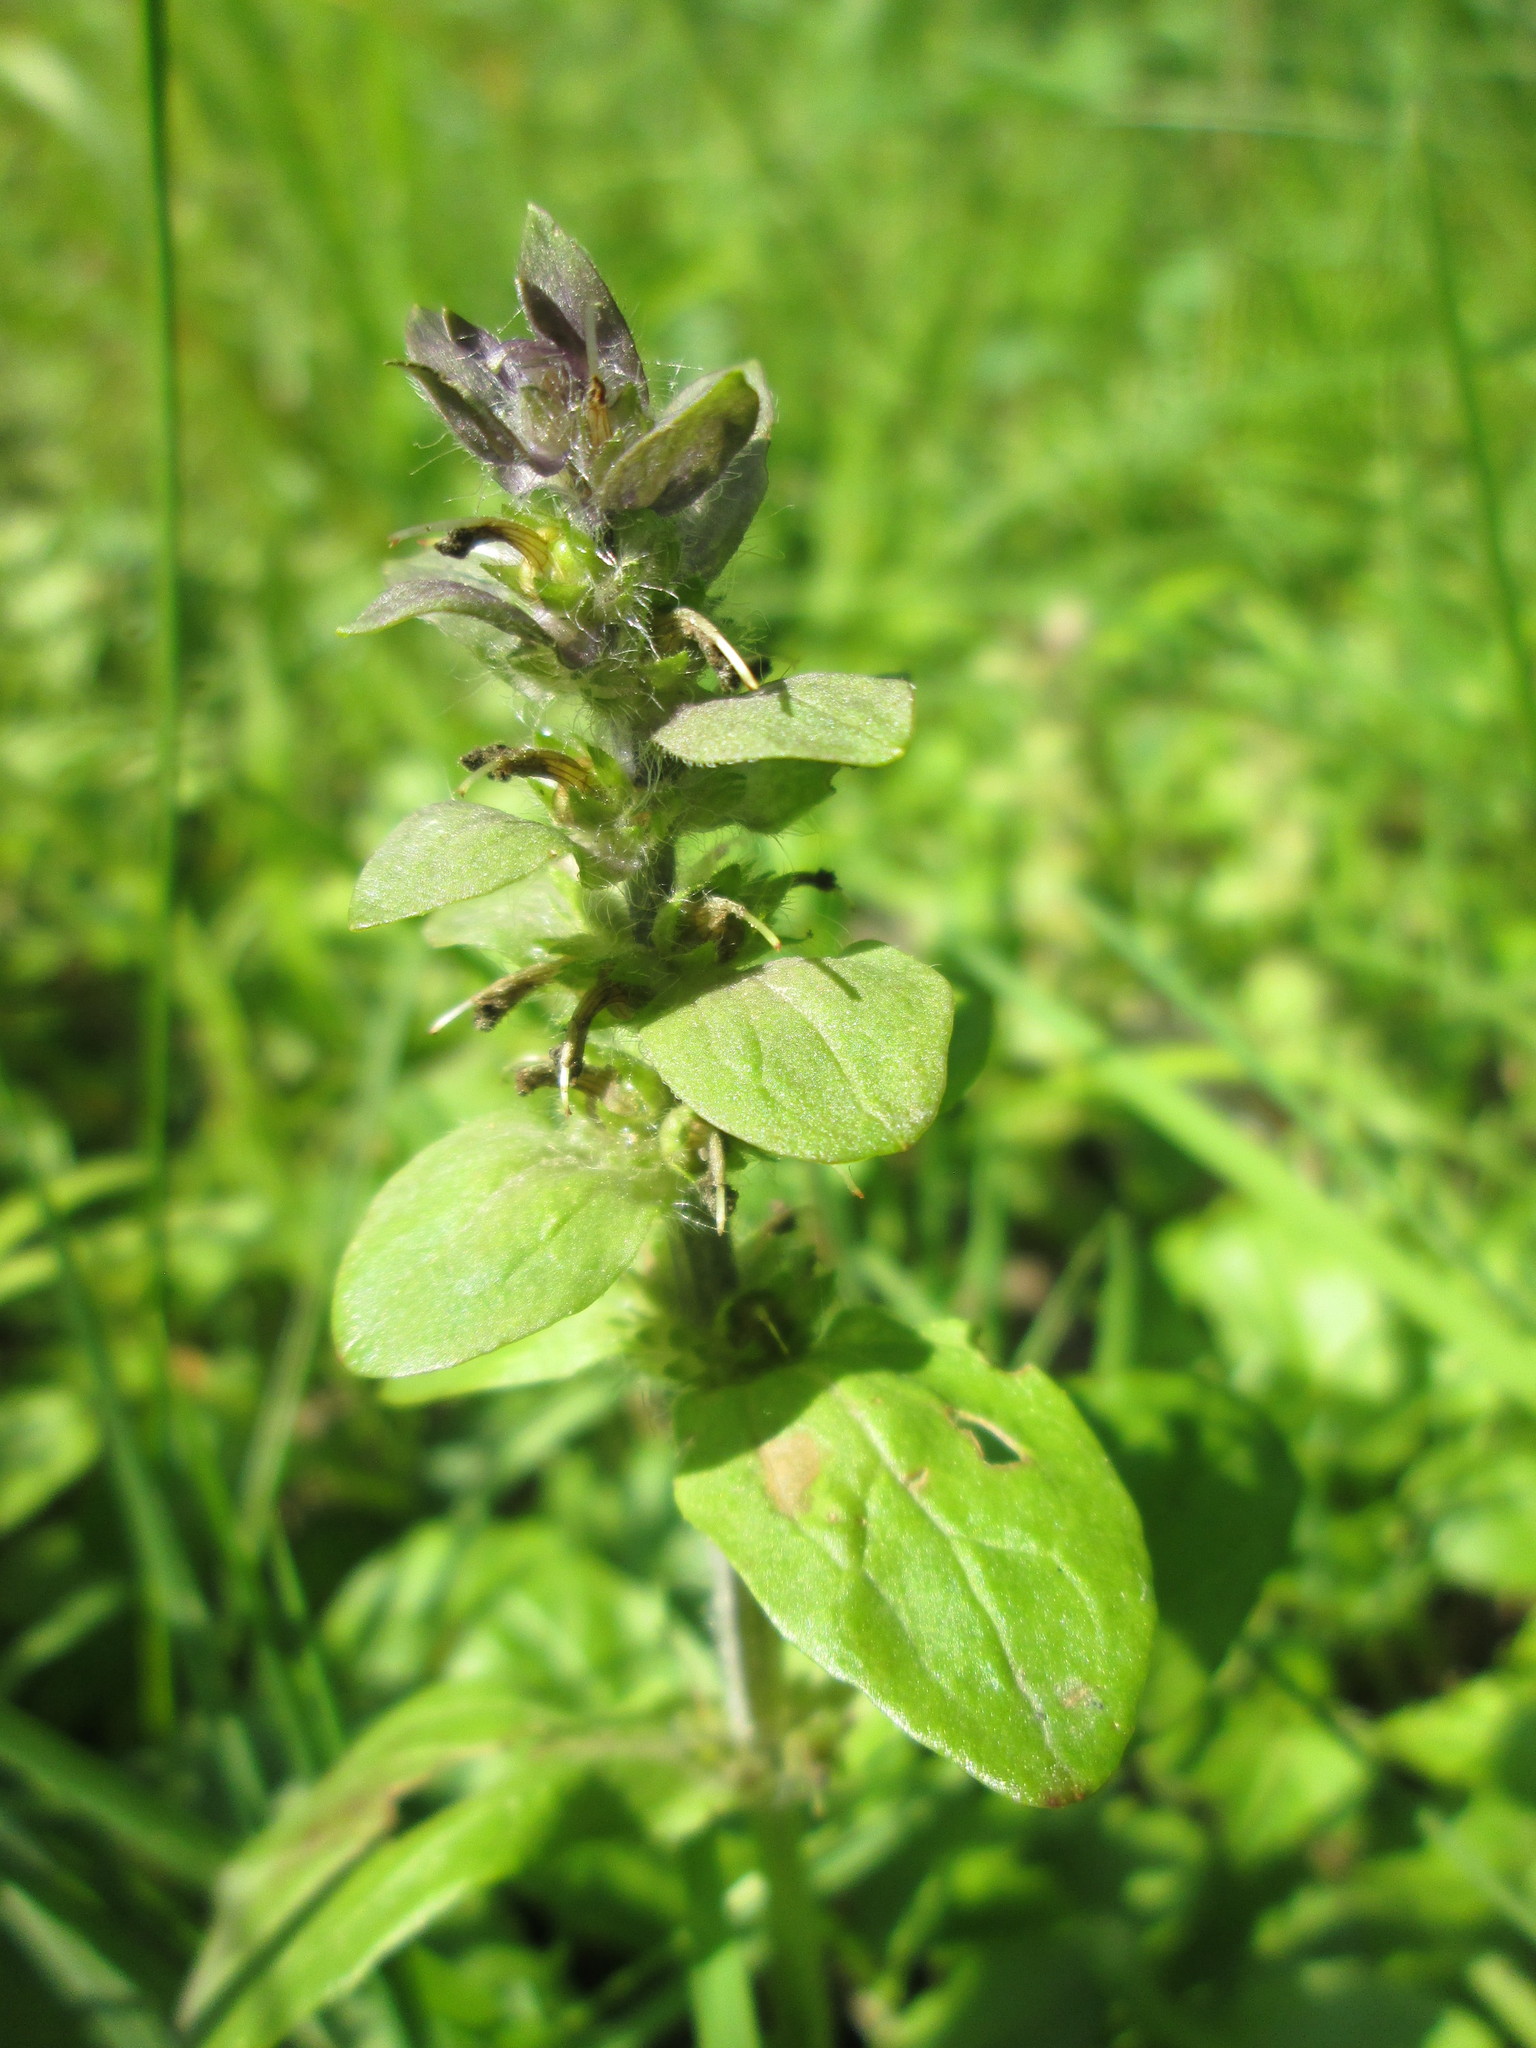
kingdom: Plantae
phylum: Tracheophyta
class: Magnoliopsida
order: Lamiales
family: Lamiaceae
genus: Ajuga
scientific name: Ajuga reptans
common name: Bugle
